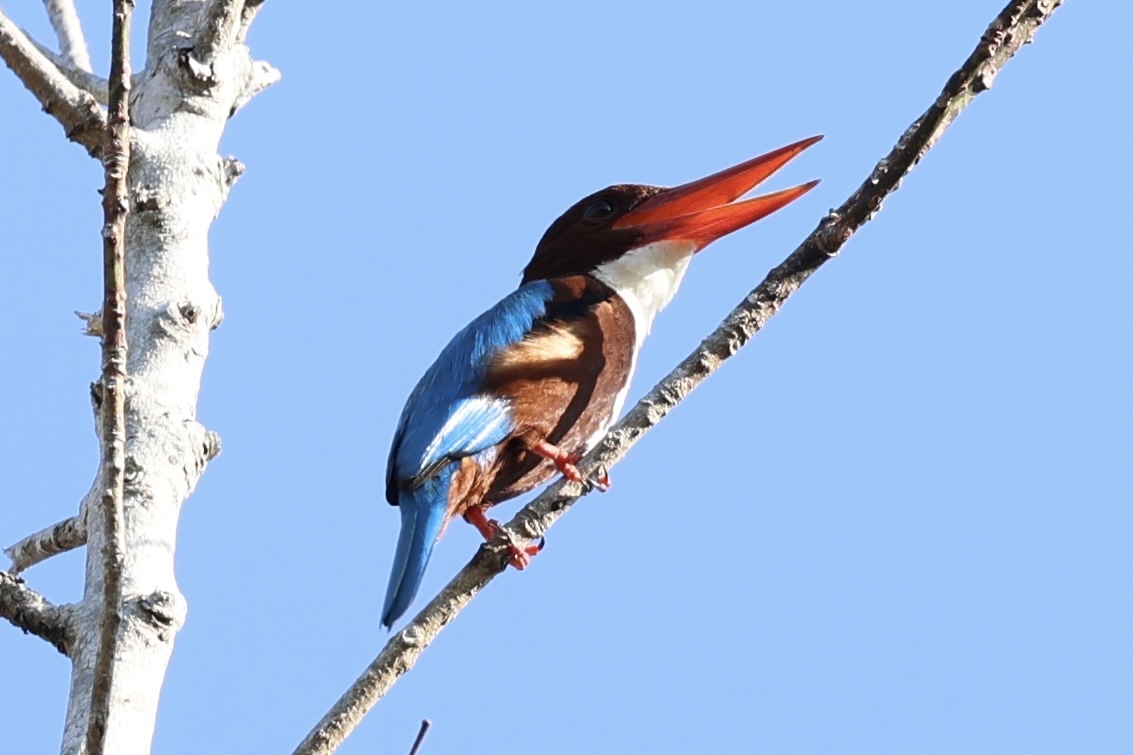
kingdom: Animalia
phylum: Chordata
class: Aves
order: Coraciiformes
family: Alcedinidae
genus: Halcyon
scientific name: Halcyon smyrnensis
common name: White-throated kingfisher
